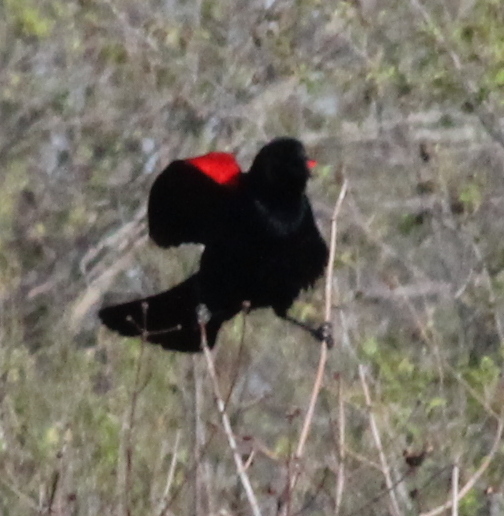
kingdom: Animalia
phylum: Chordata
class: Aves
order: Passeriformes
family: Icteridae
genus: Agelaius
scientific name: Agelaius phoeniceus
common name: Red-winged blackbird
